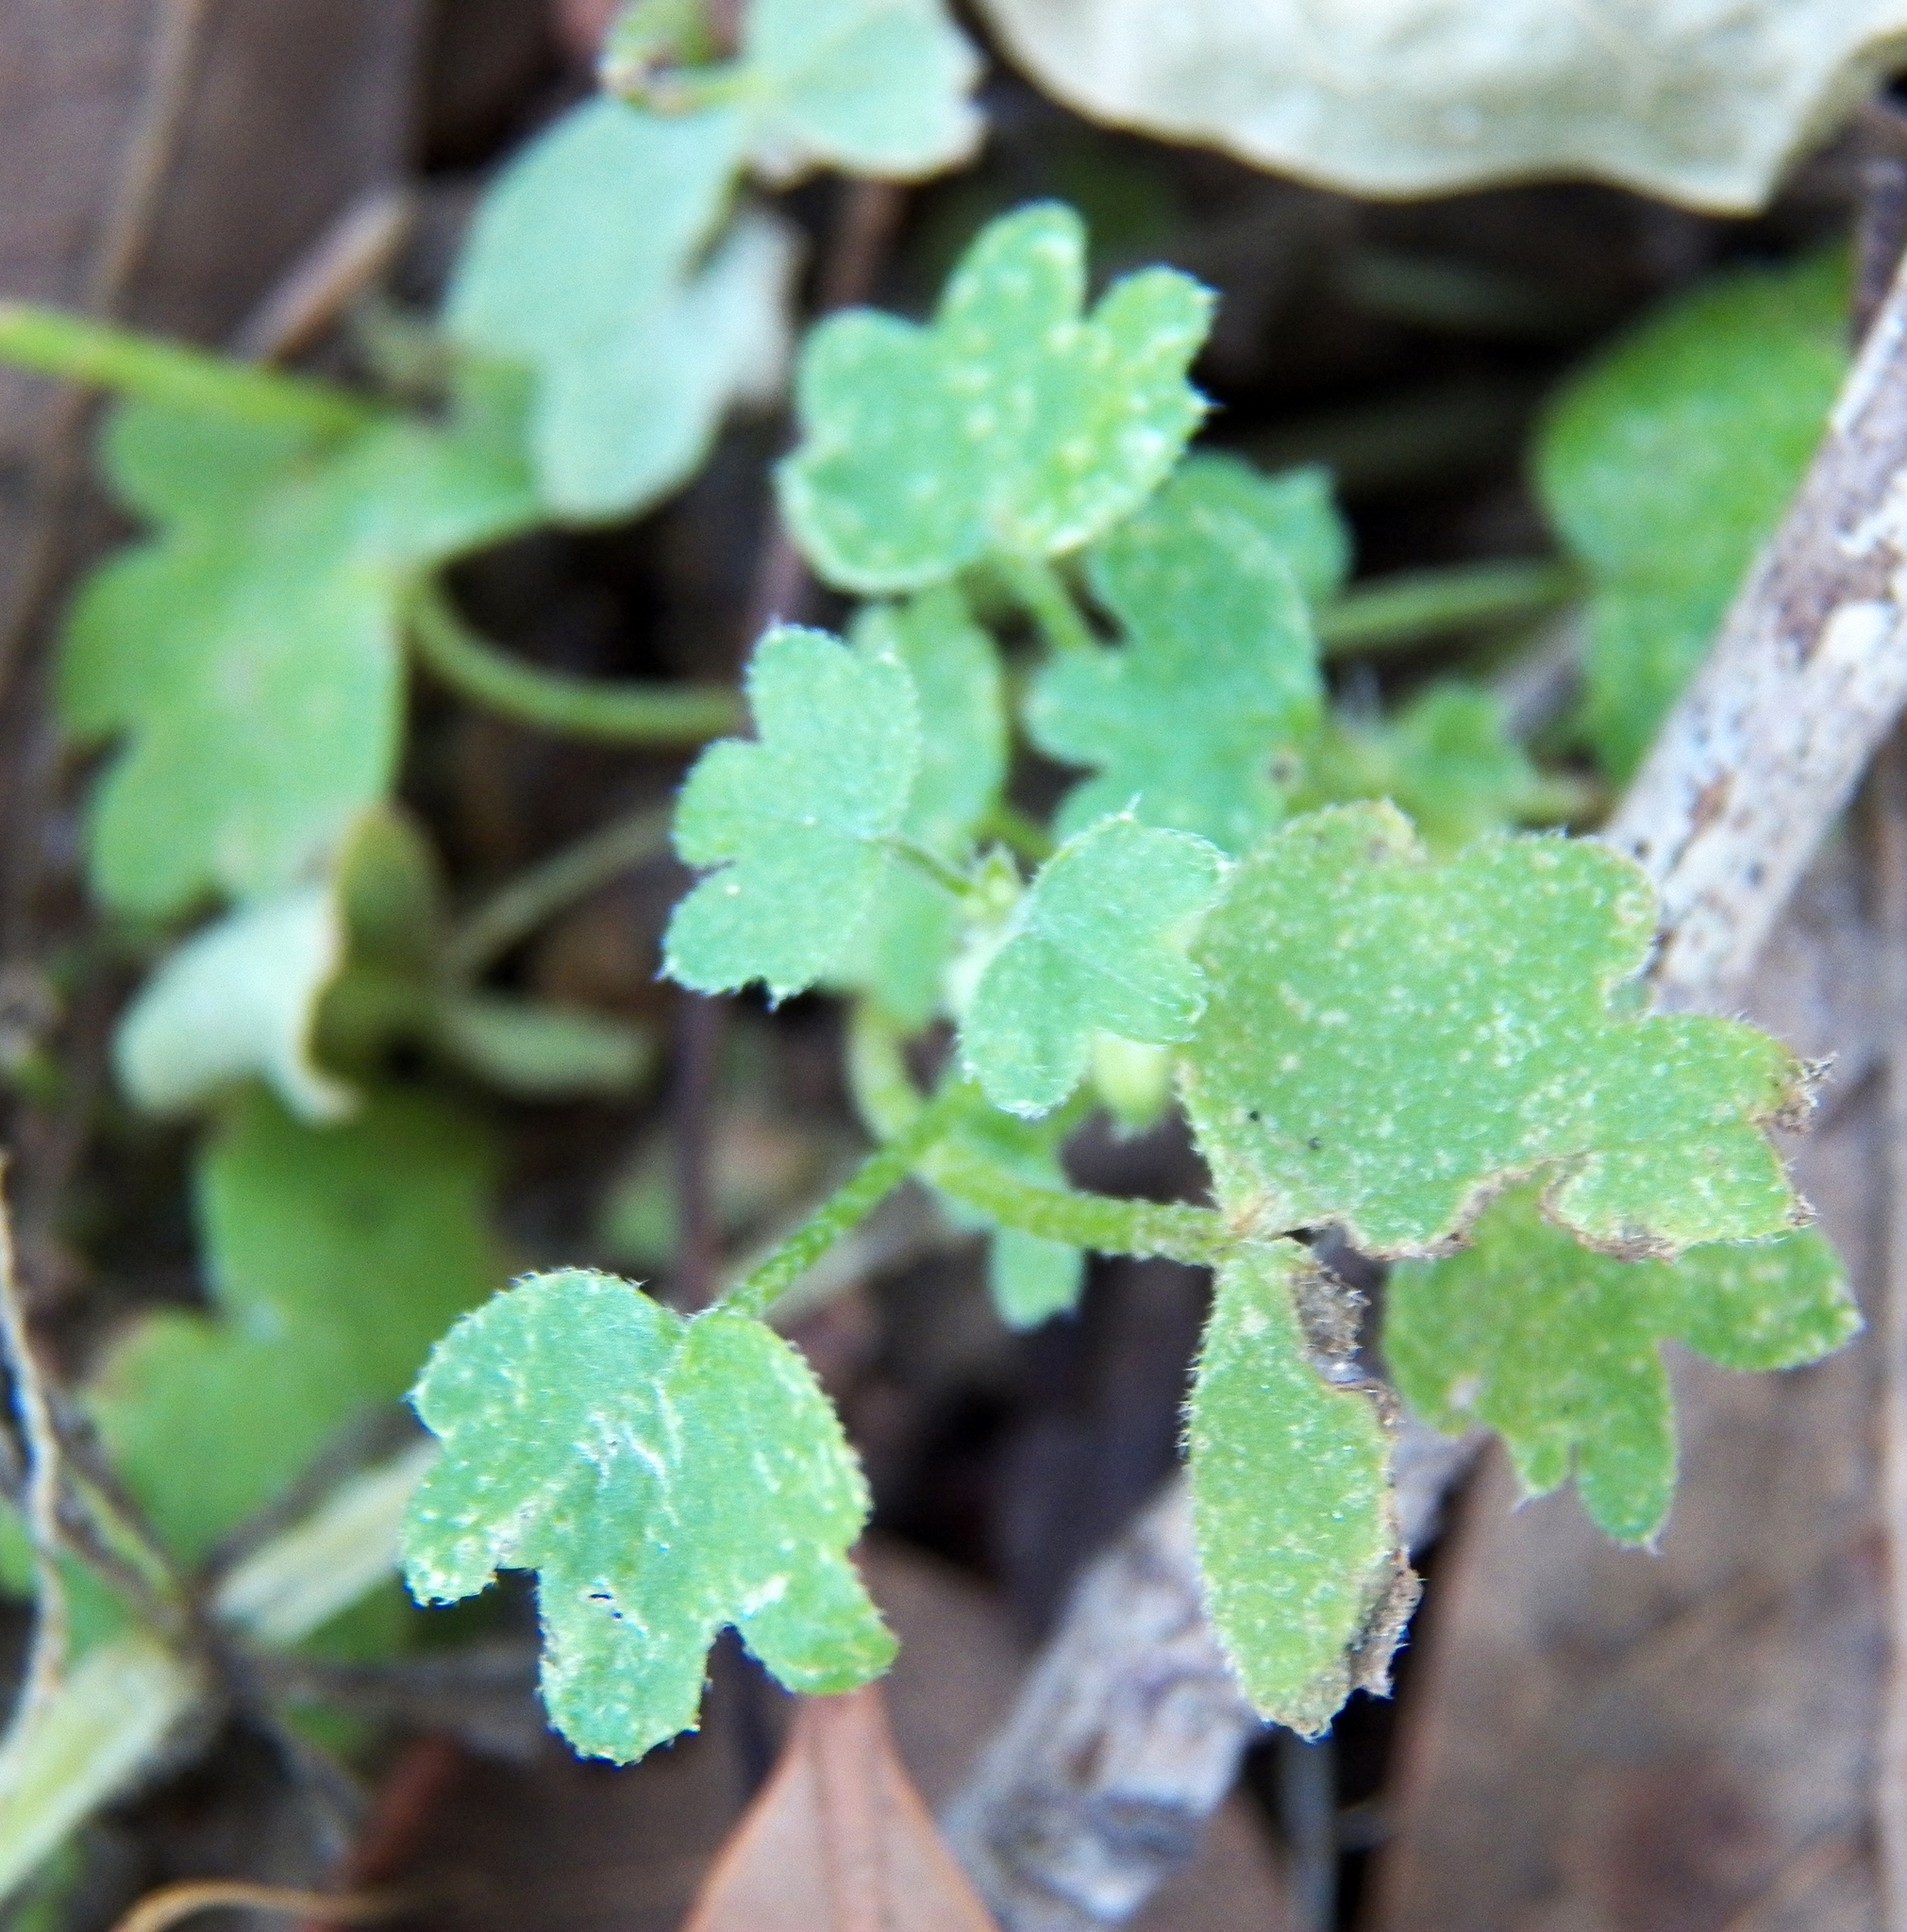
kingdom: Plantae
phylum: Tracheophyta
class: Magnoliopsida
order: Apiales
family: Apiaceae
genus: Bowlesia
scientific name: Bowlesia incana
